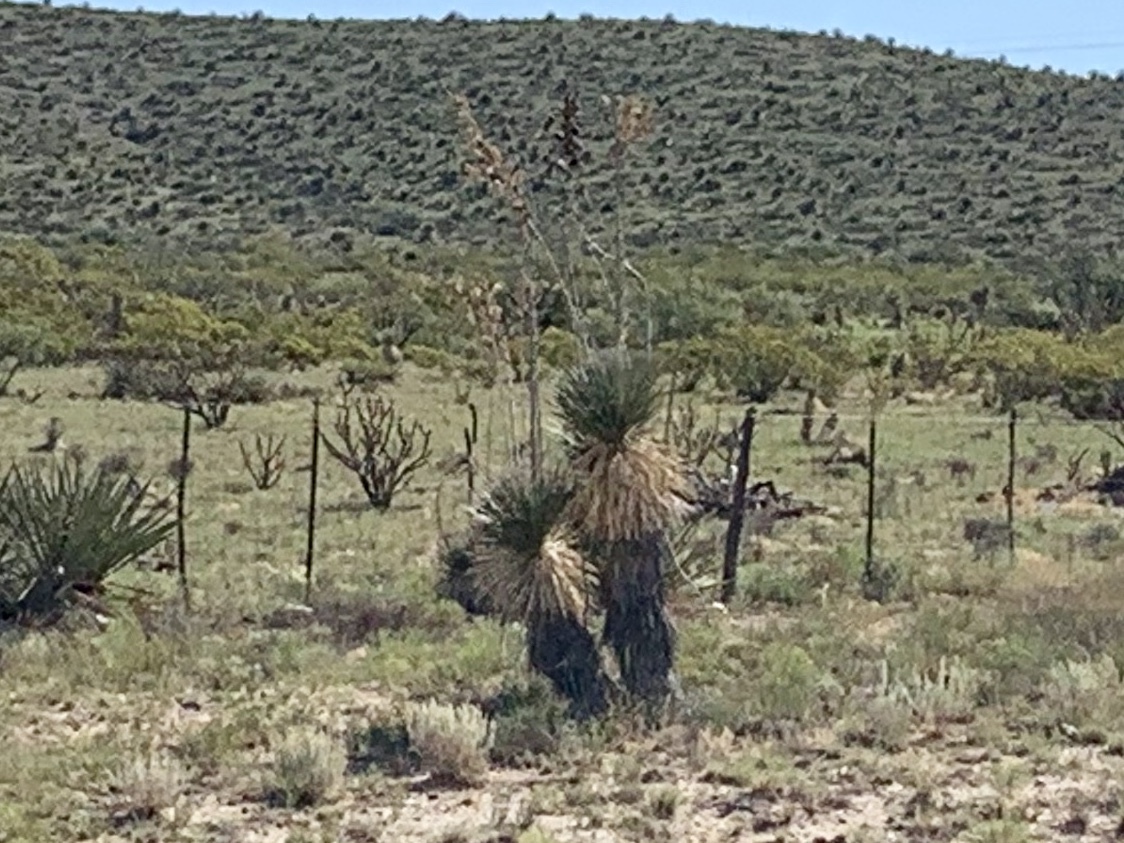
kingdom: Plantae
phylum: Tracheophyta
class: Liliopsida
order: Asparagales
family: Asparagaceae
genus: Yucca
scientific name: Yucca elata
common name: Palmella
